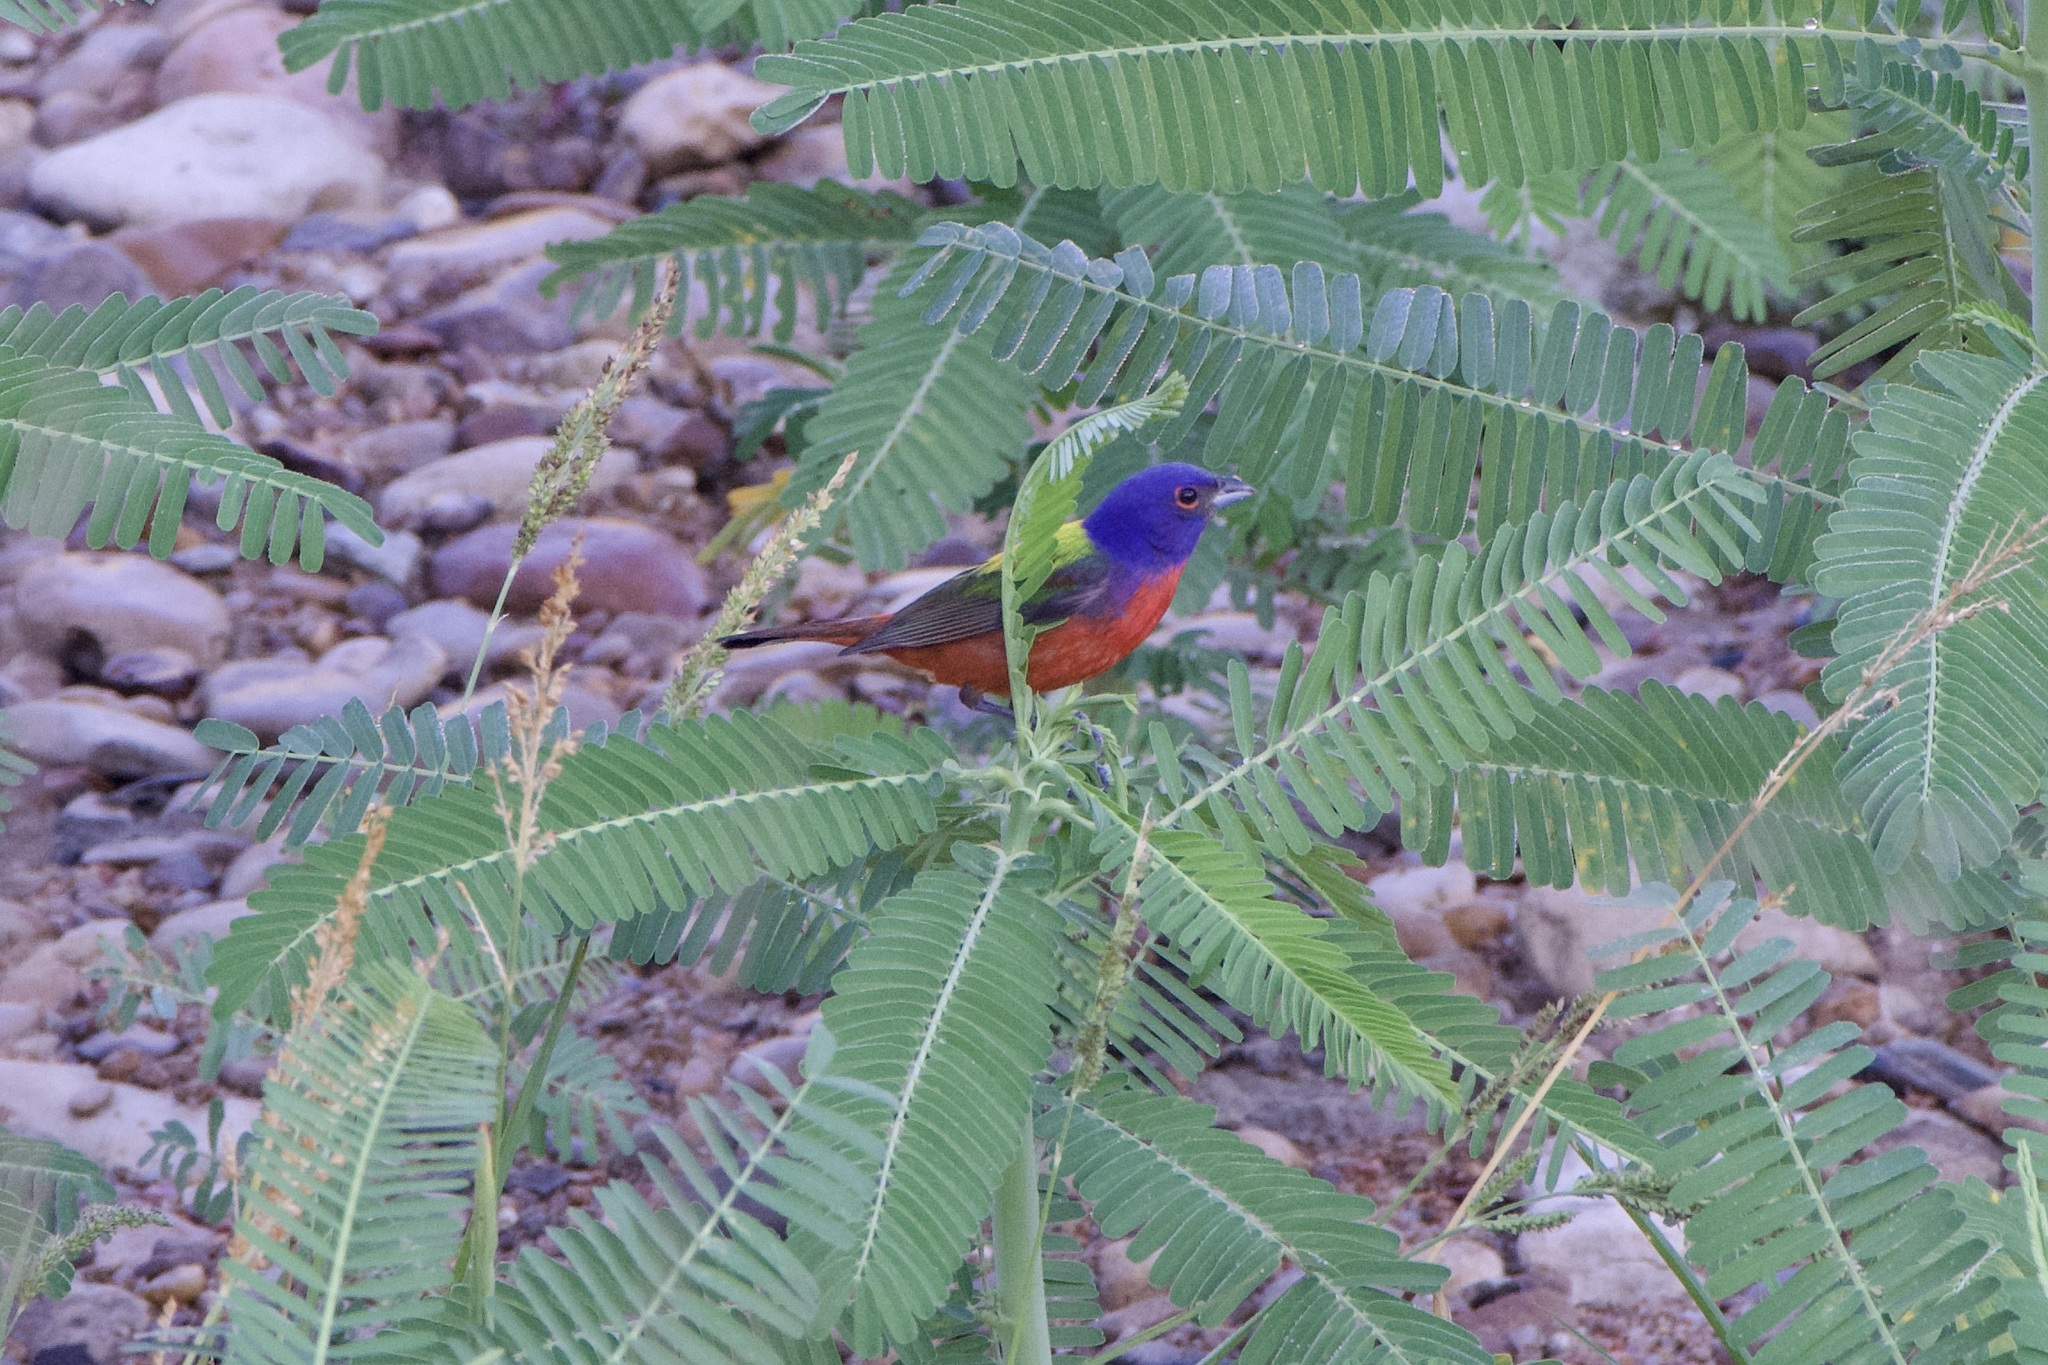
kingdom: Animalia
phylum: Chordata
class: Aves
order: Passeriformes
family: Cardinalidae
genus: Passerina
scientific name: Passerina ciris
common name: Painted bunting
